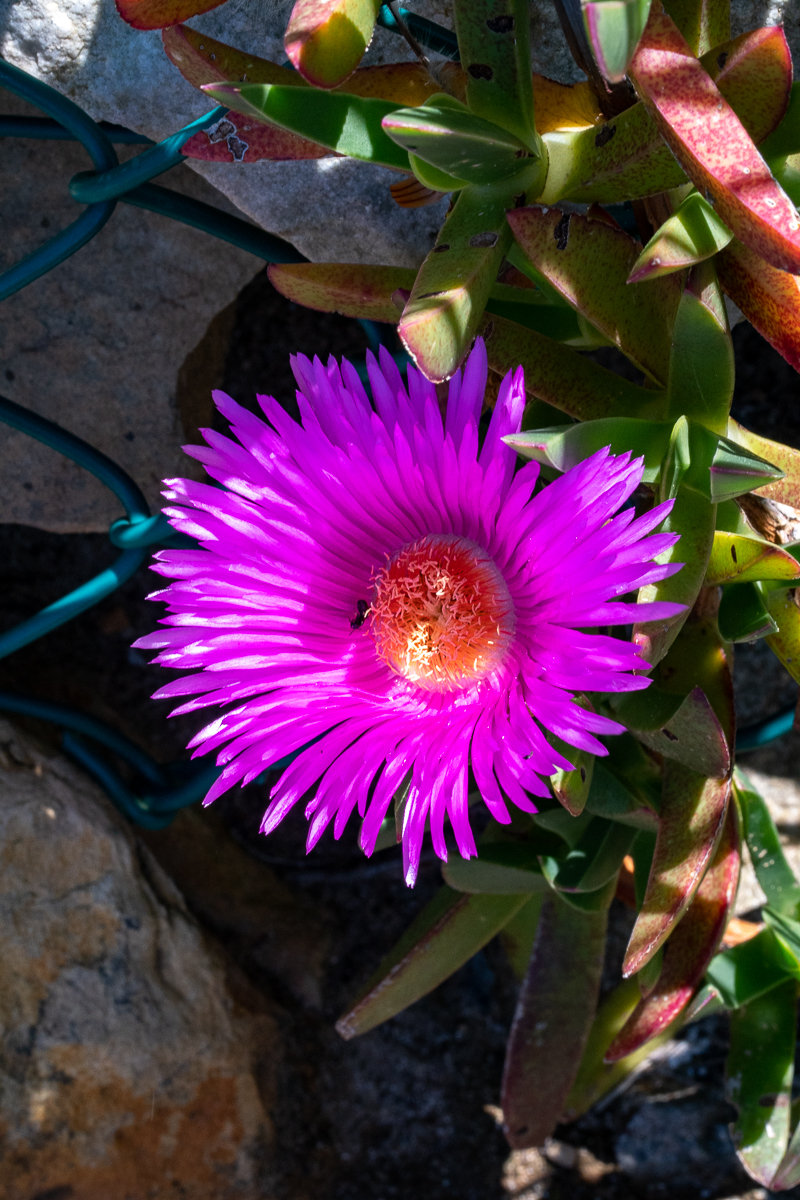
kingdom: Plantae
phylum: Tracheophyta
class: Magnoliopsida
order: Caryophyllales
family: Aizoaceae
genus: Carpobrotus
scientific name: Carpobrotus acinaciformis
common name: Sally-my-handsome
